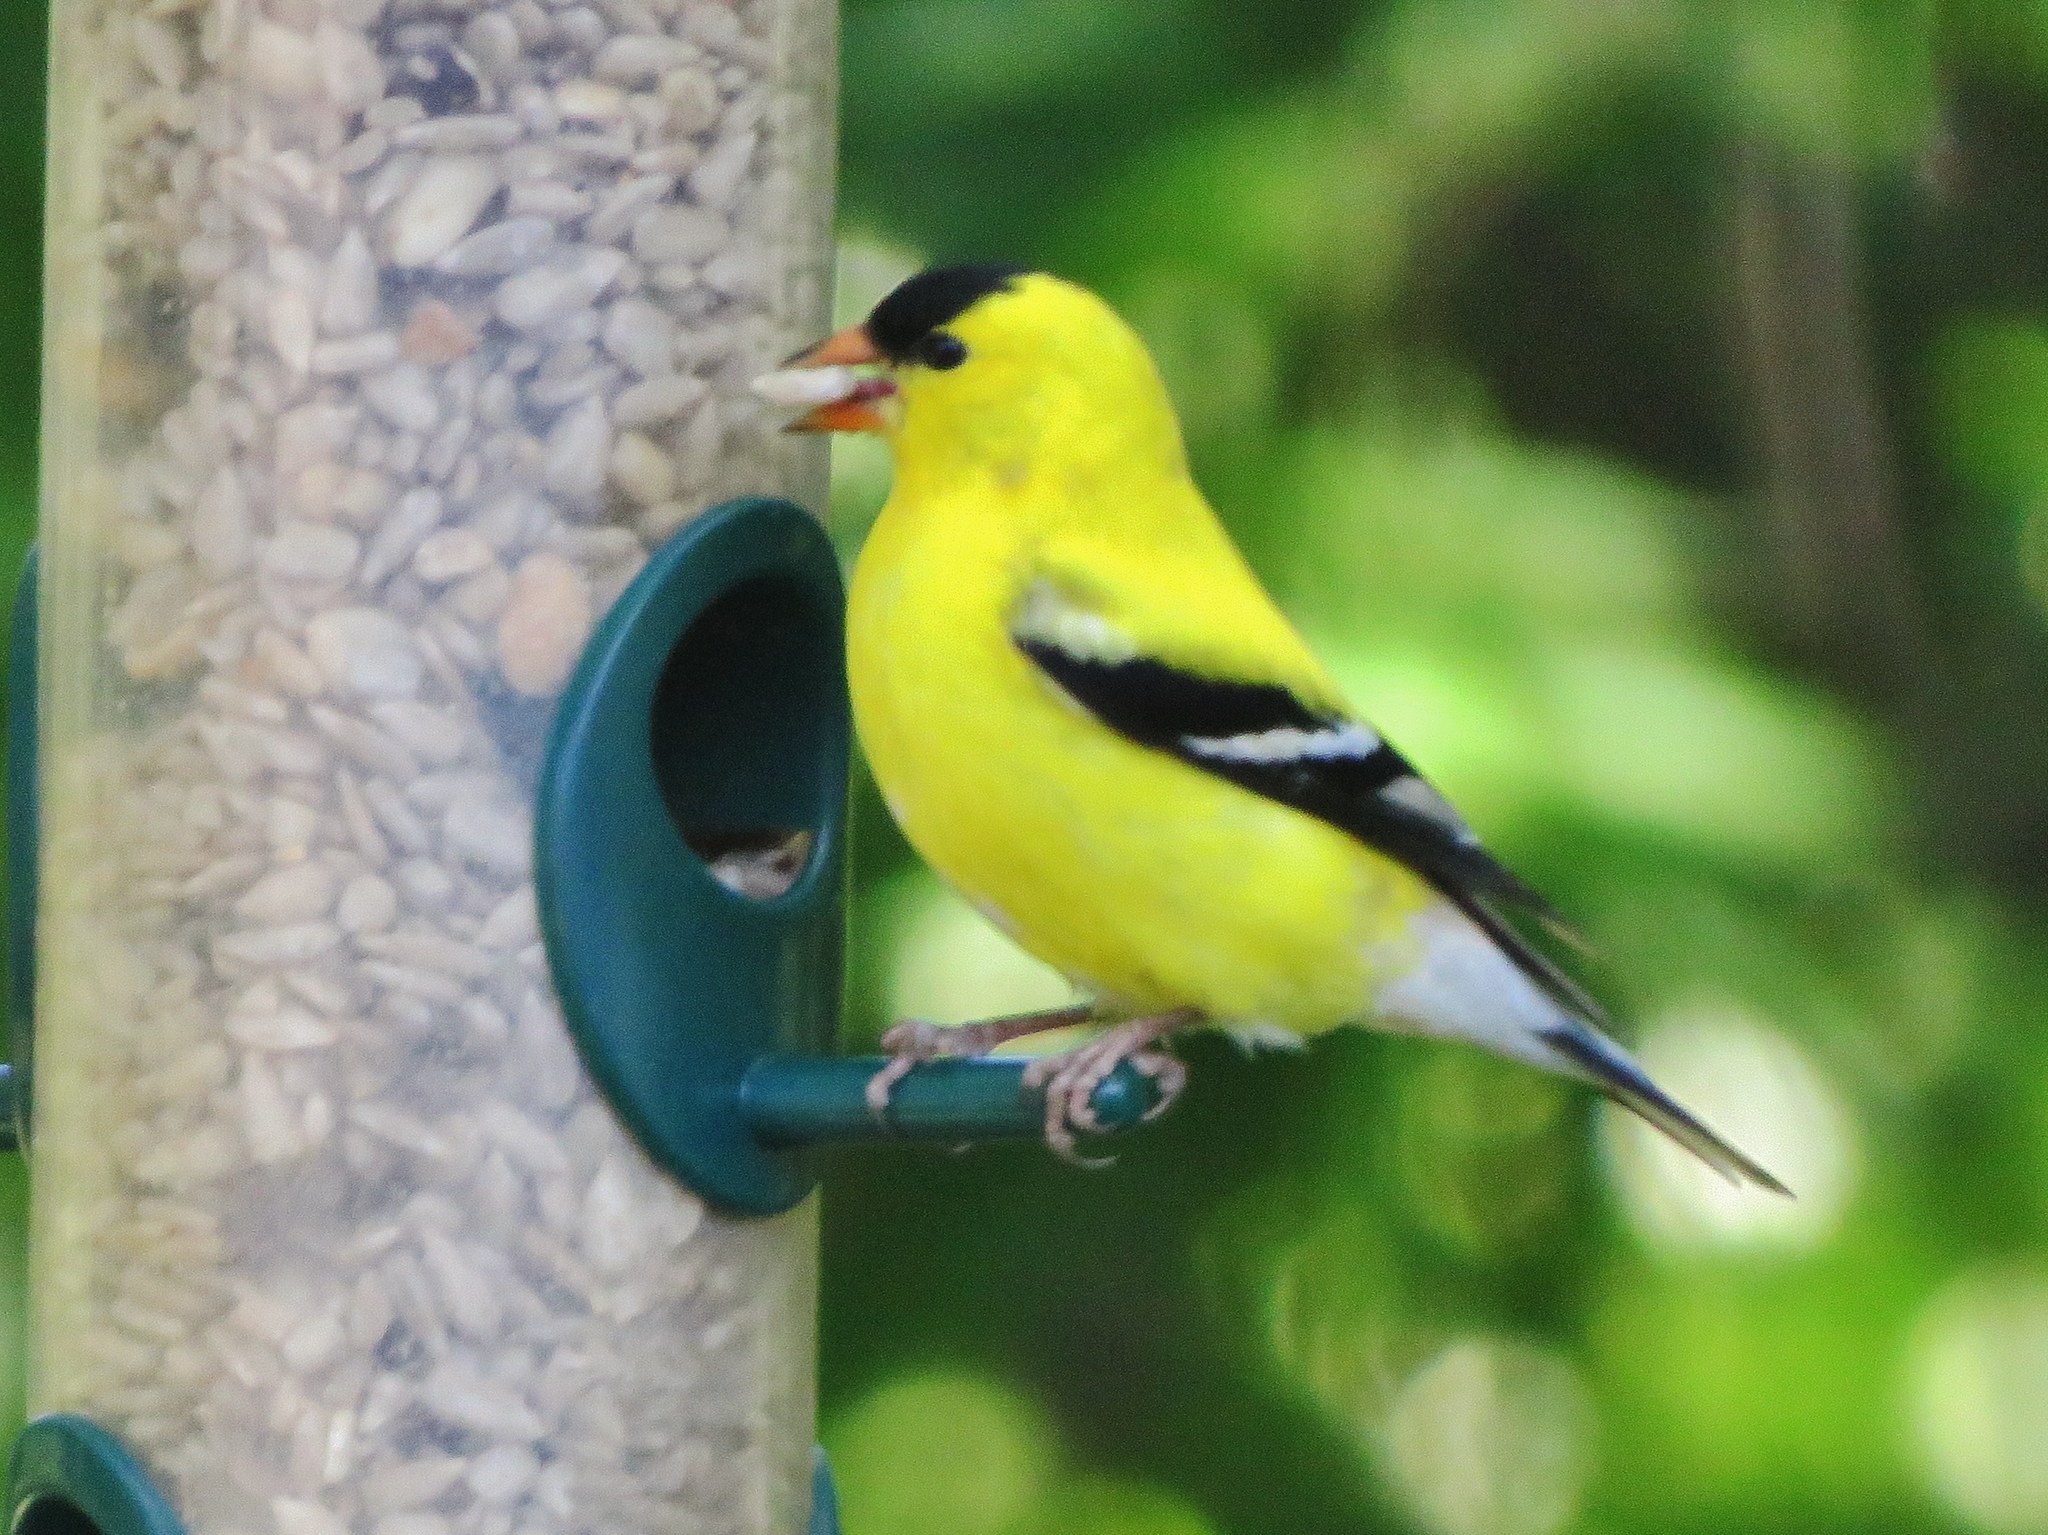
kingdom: Animalia
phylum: Chordata
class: Aves
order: Passeriformes
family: Fringillidae
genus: Spinus
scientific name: Spinus tristis
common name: American goldfinch
